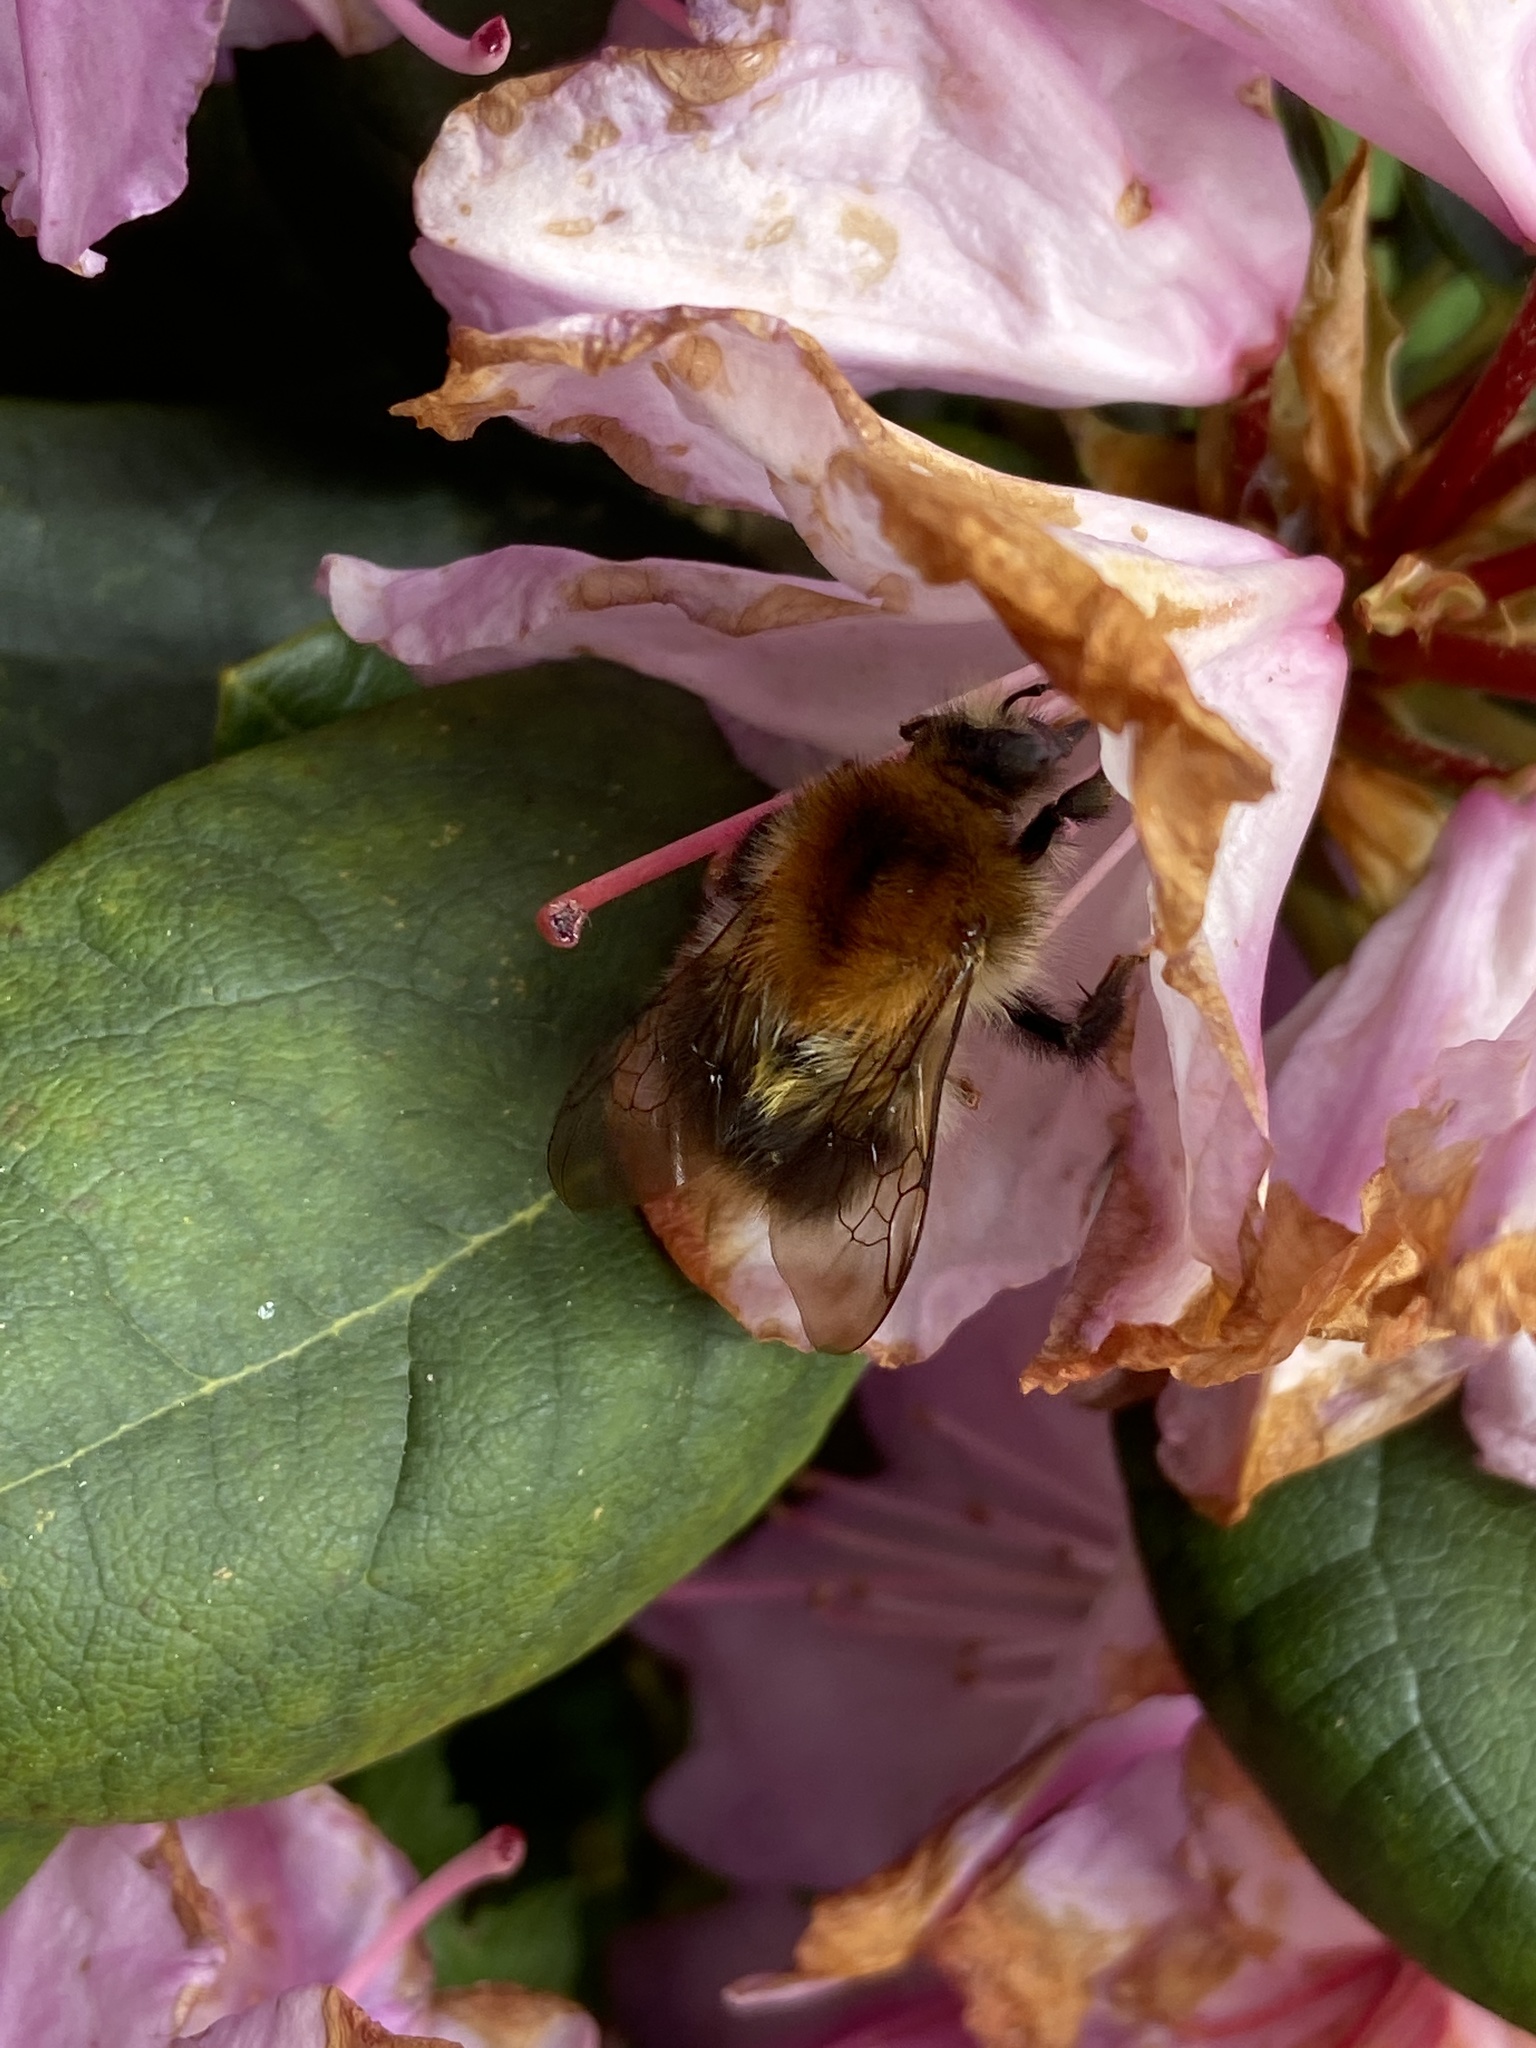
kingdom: Animalia
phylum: Arthropoda
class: Insecta
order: Hymenoptera
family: Apidae
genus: Bombus
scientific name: Bombus pascuorum
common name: Common carder bee
